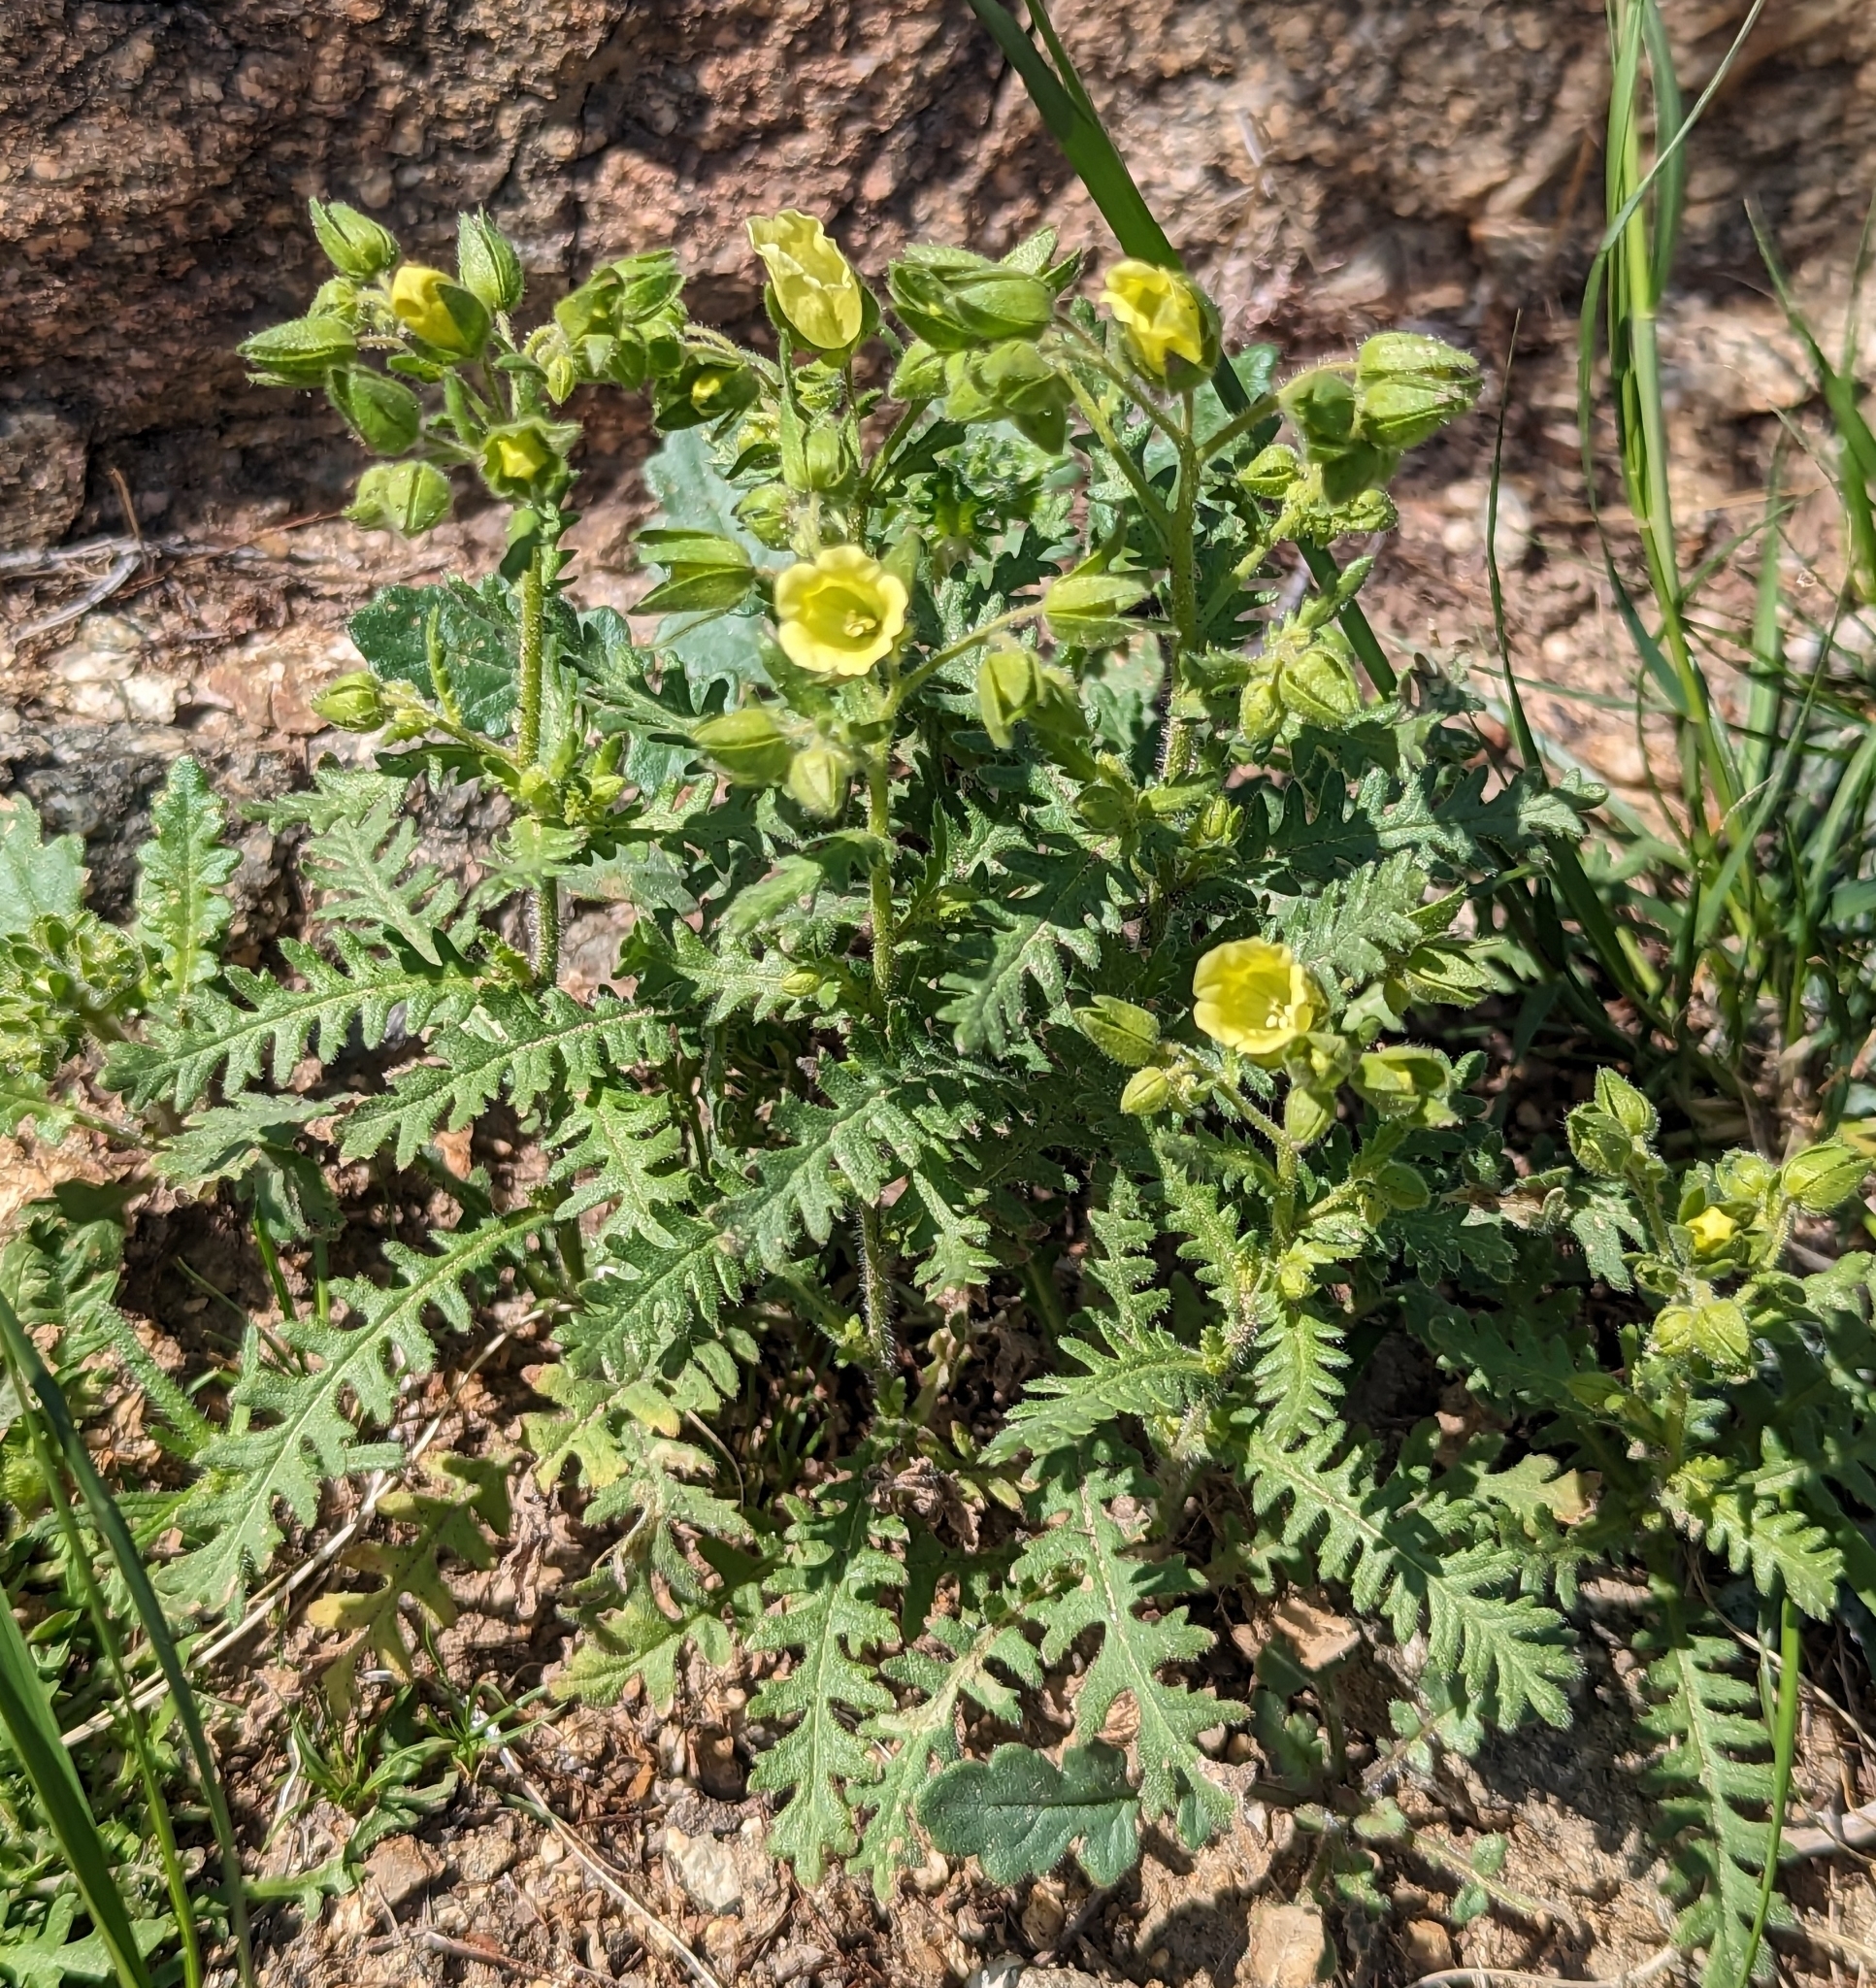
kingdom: Plantae
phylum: Tracheophyta
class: Magnoliopsida
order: Boraginales
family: Hydrophyllaceae
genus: Emmenanthe
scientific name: Emmenanthe penduliflora
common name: Whispering-bells
